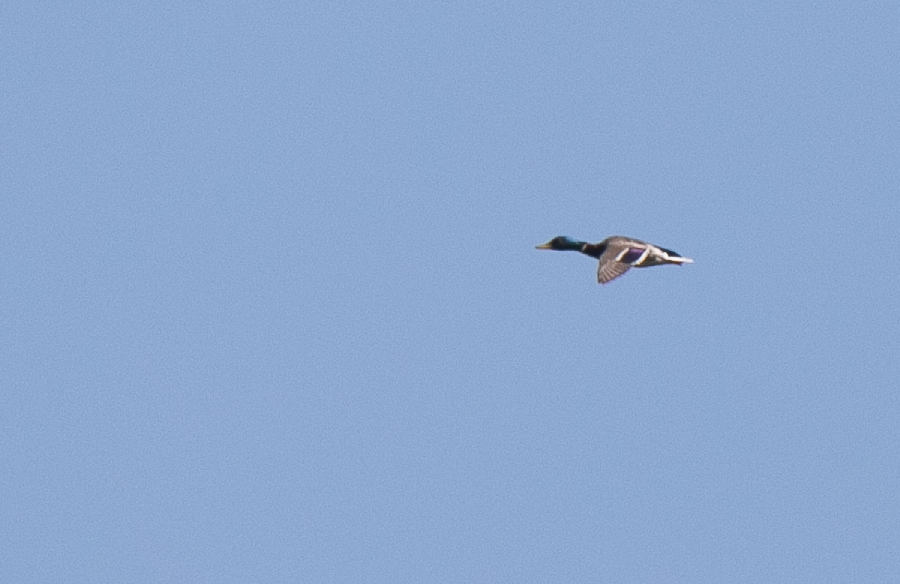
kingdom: Animalia
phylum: Chordata
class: Aves
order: Anseriformes
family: Anatidae
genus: Anas
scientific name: Anas platyrhynchos
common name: Mallard
